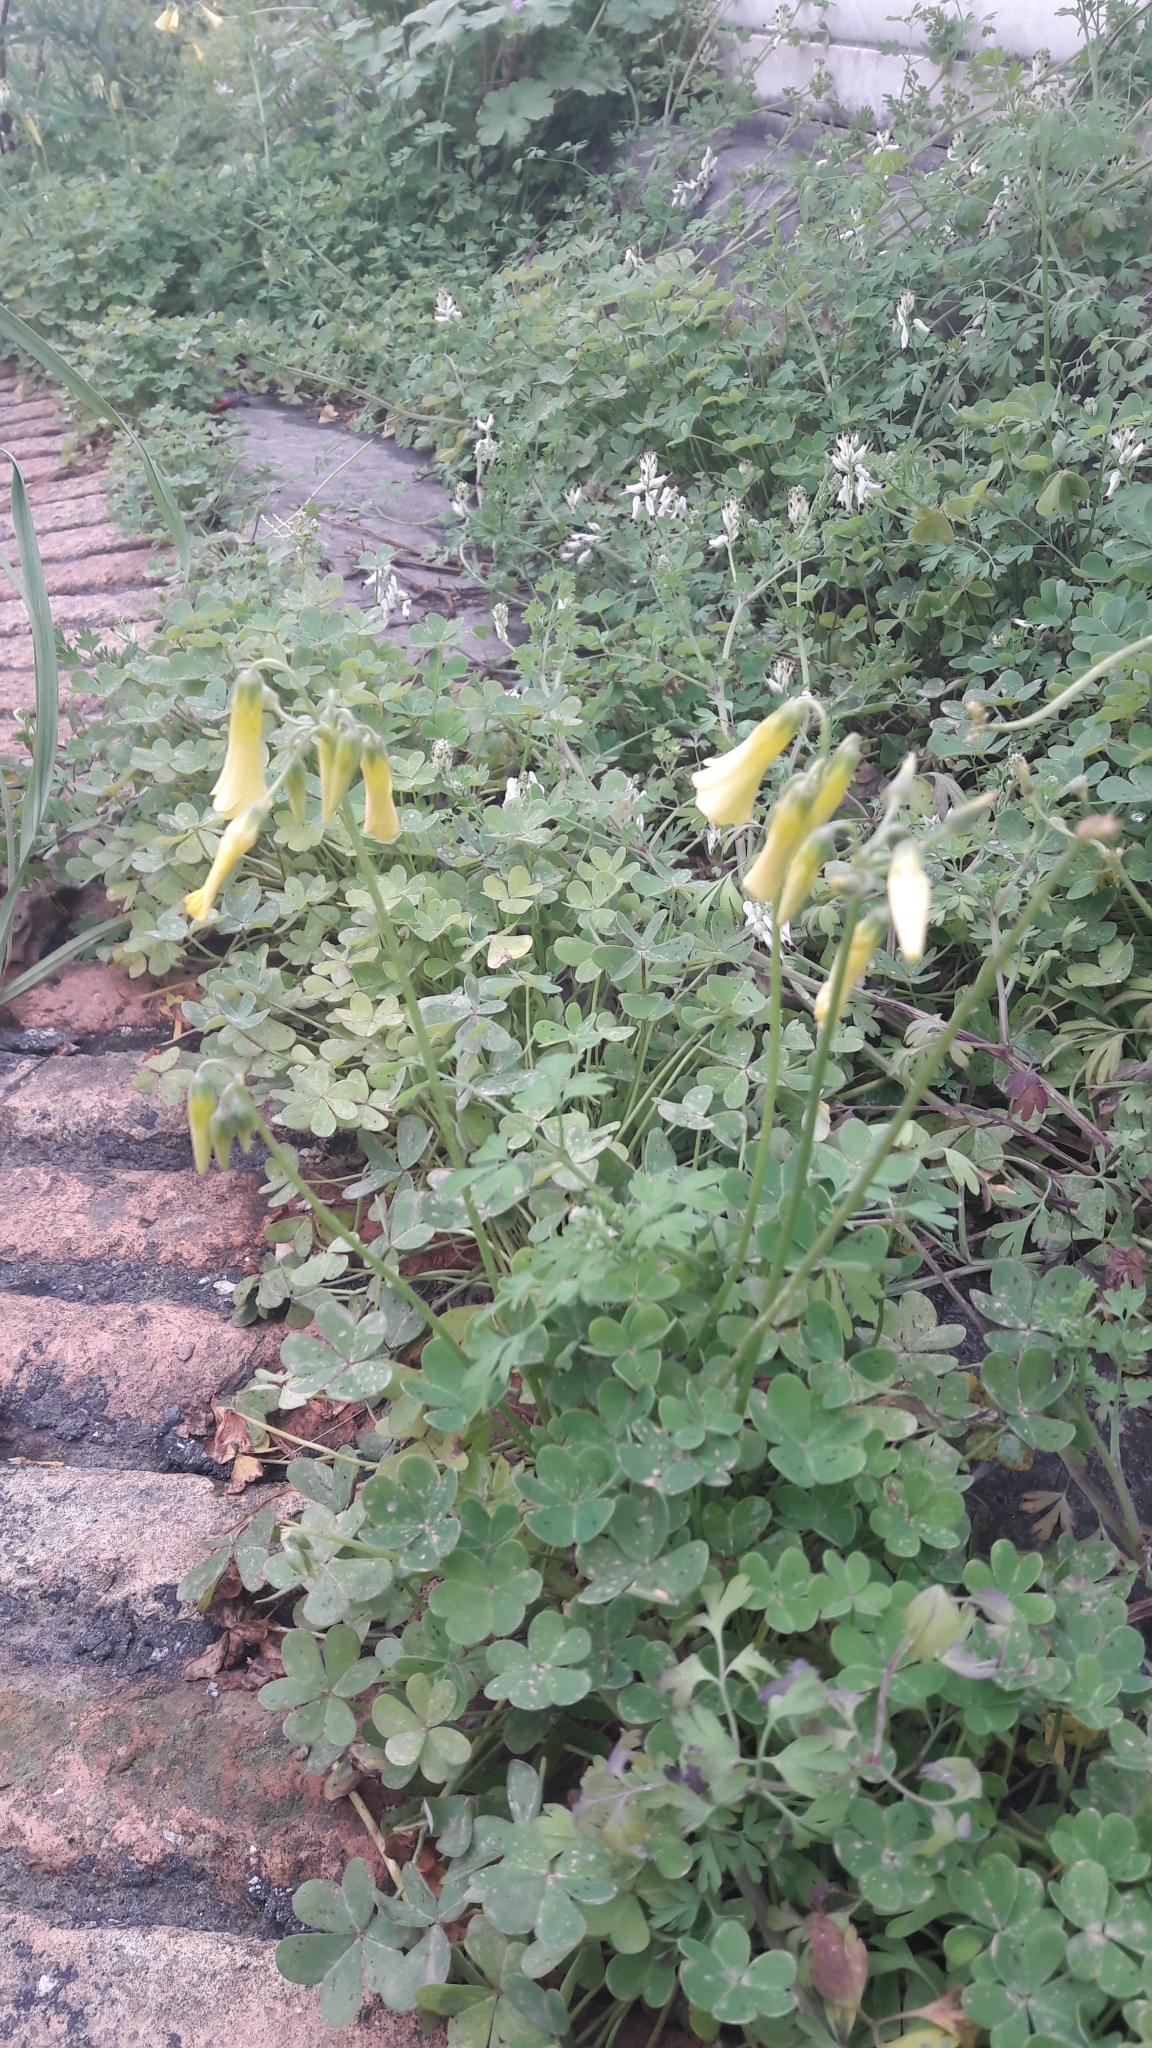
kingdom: Plantae
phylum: Tracheophyta
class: Magnoliopsida
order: Oxalidales
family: Oxalidaceae
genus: Oxalis
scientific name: Oxalis pes-caprae
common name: Bermuda-buttercup
